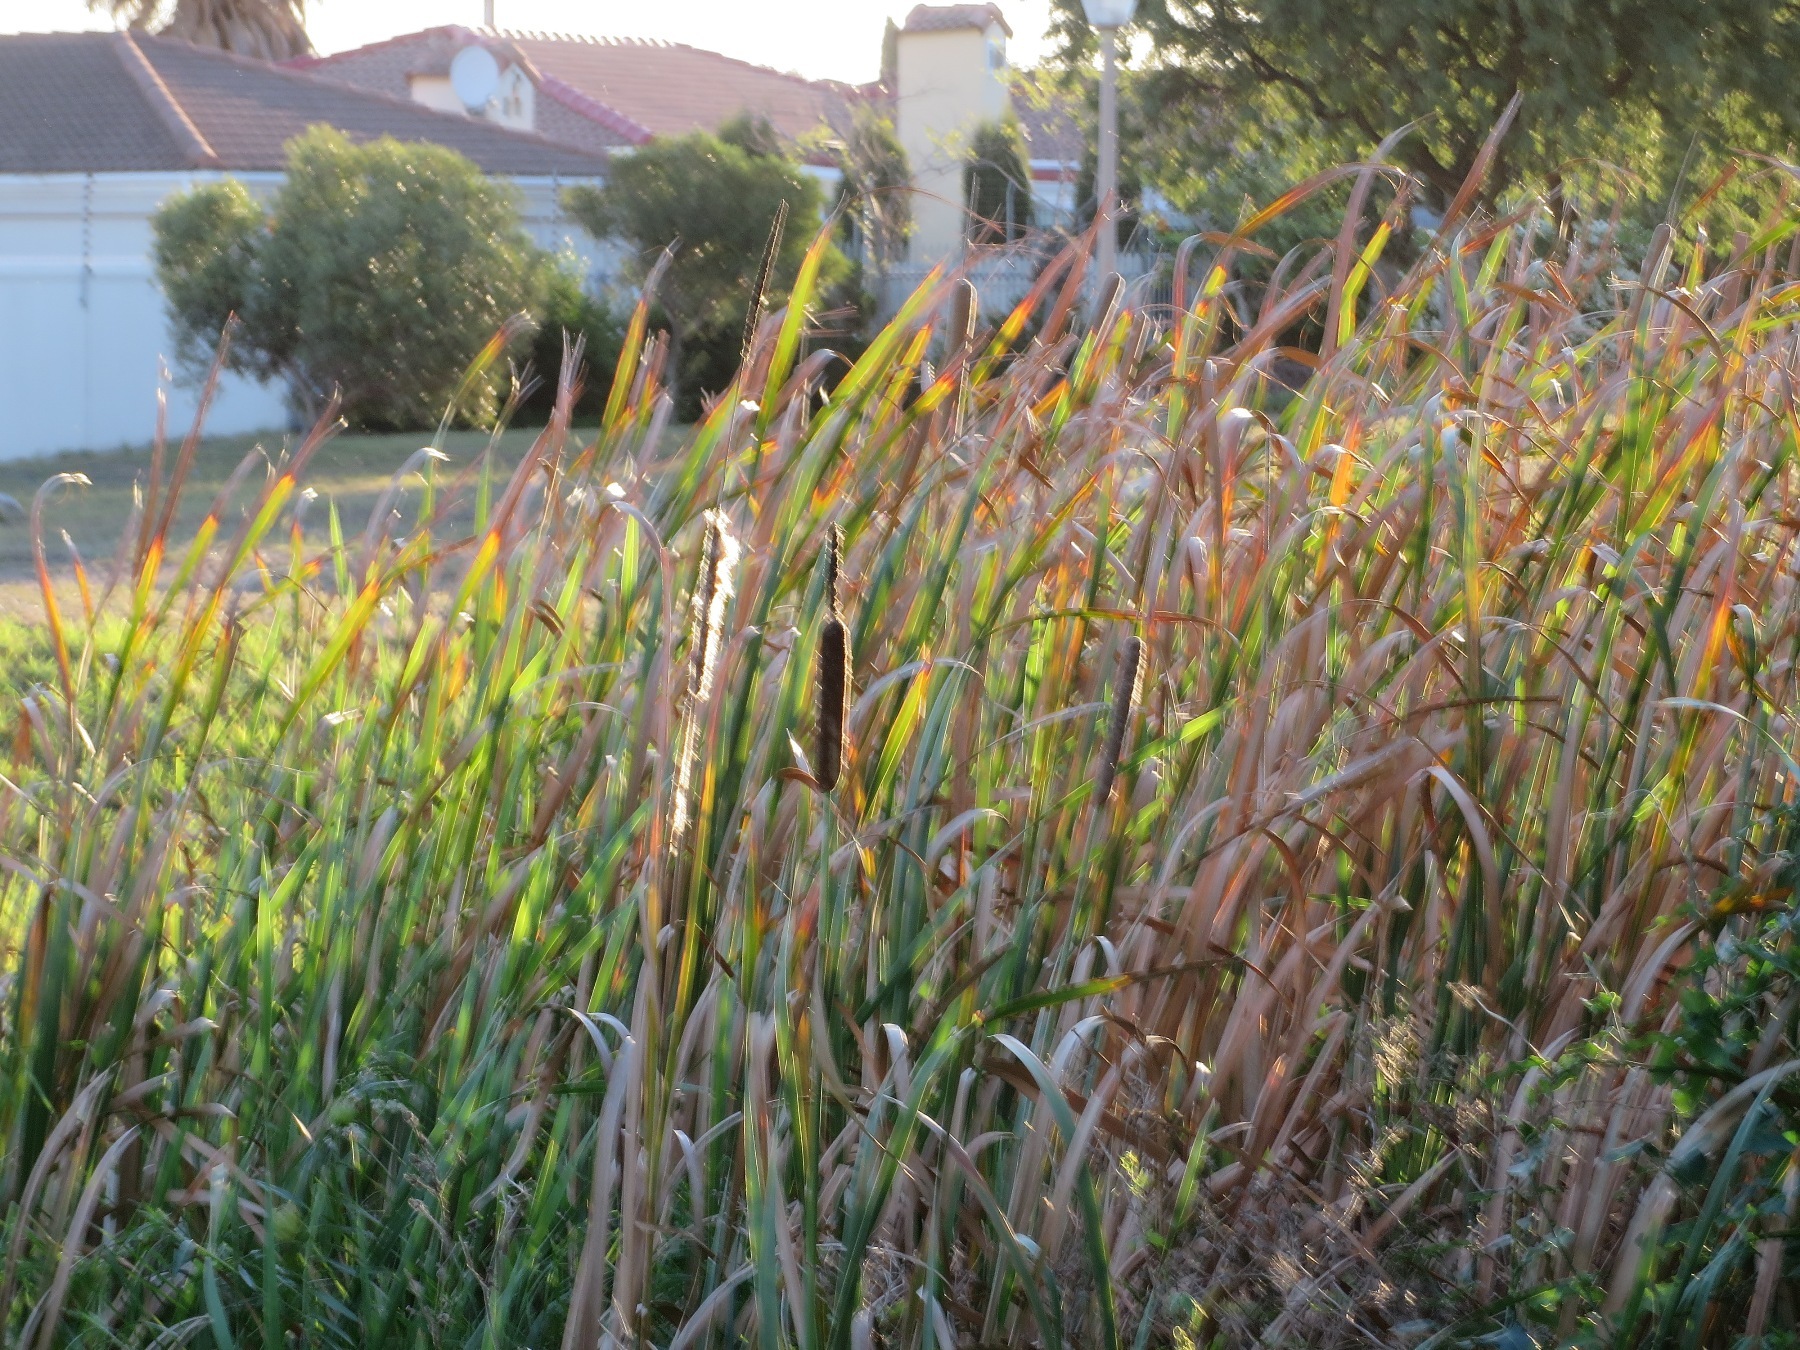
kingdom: Plantae
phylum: Tracheophyta
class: Liliopsida
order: Poales
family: Typhaceae
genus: Typha
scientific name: Typha capensis
